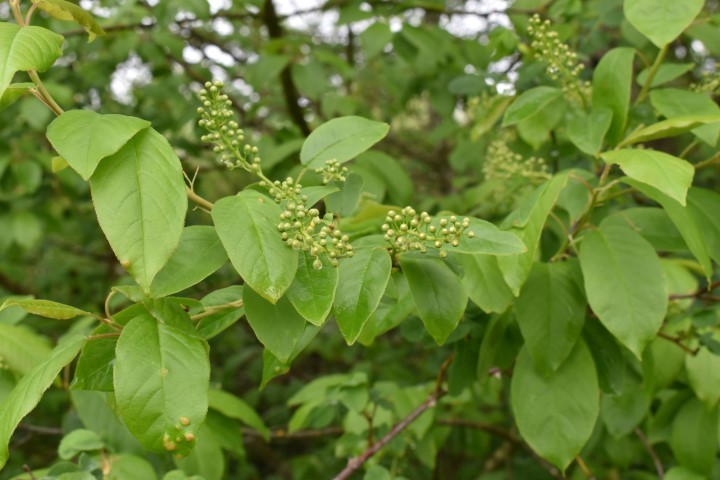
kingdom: Plantae
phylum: Tracheophyta
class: Magnoliopsida
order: Rosales
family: Rosaceae
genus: Prunus
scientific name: Prunus virginiana
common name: Chokecherry
